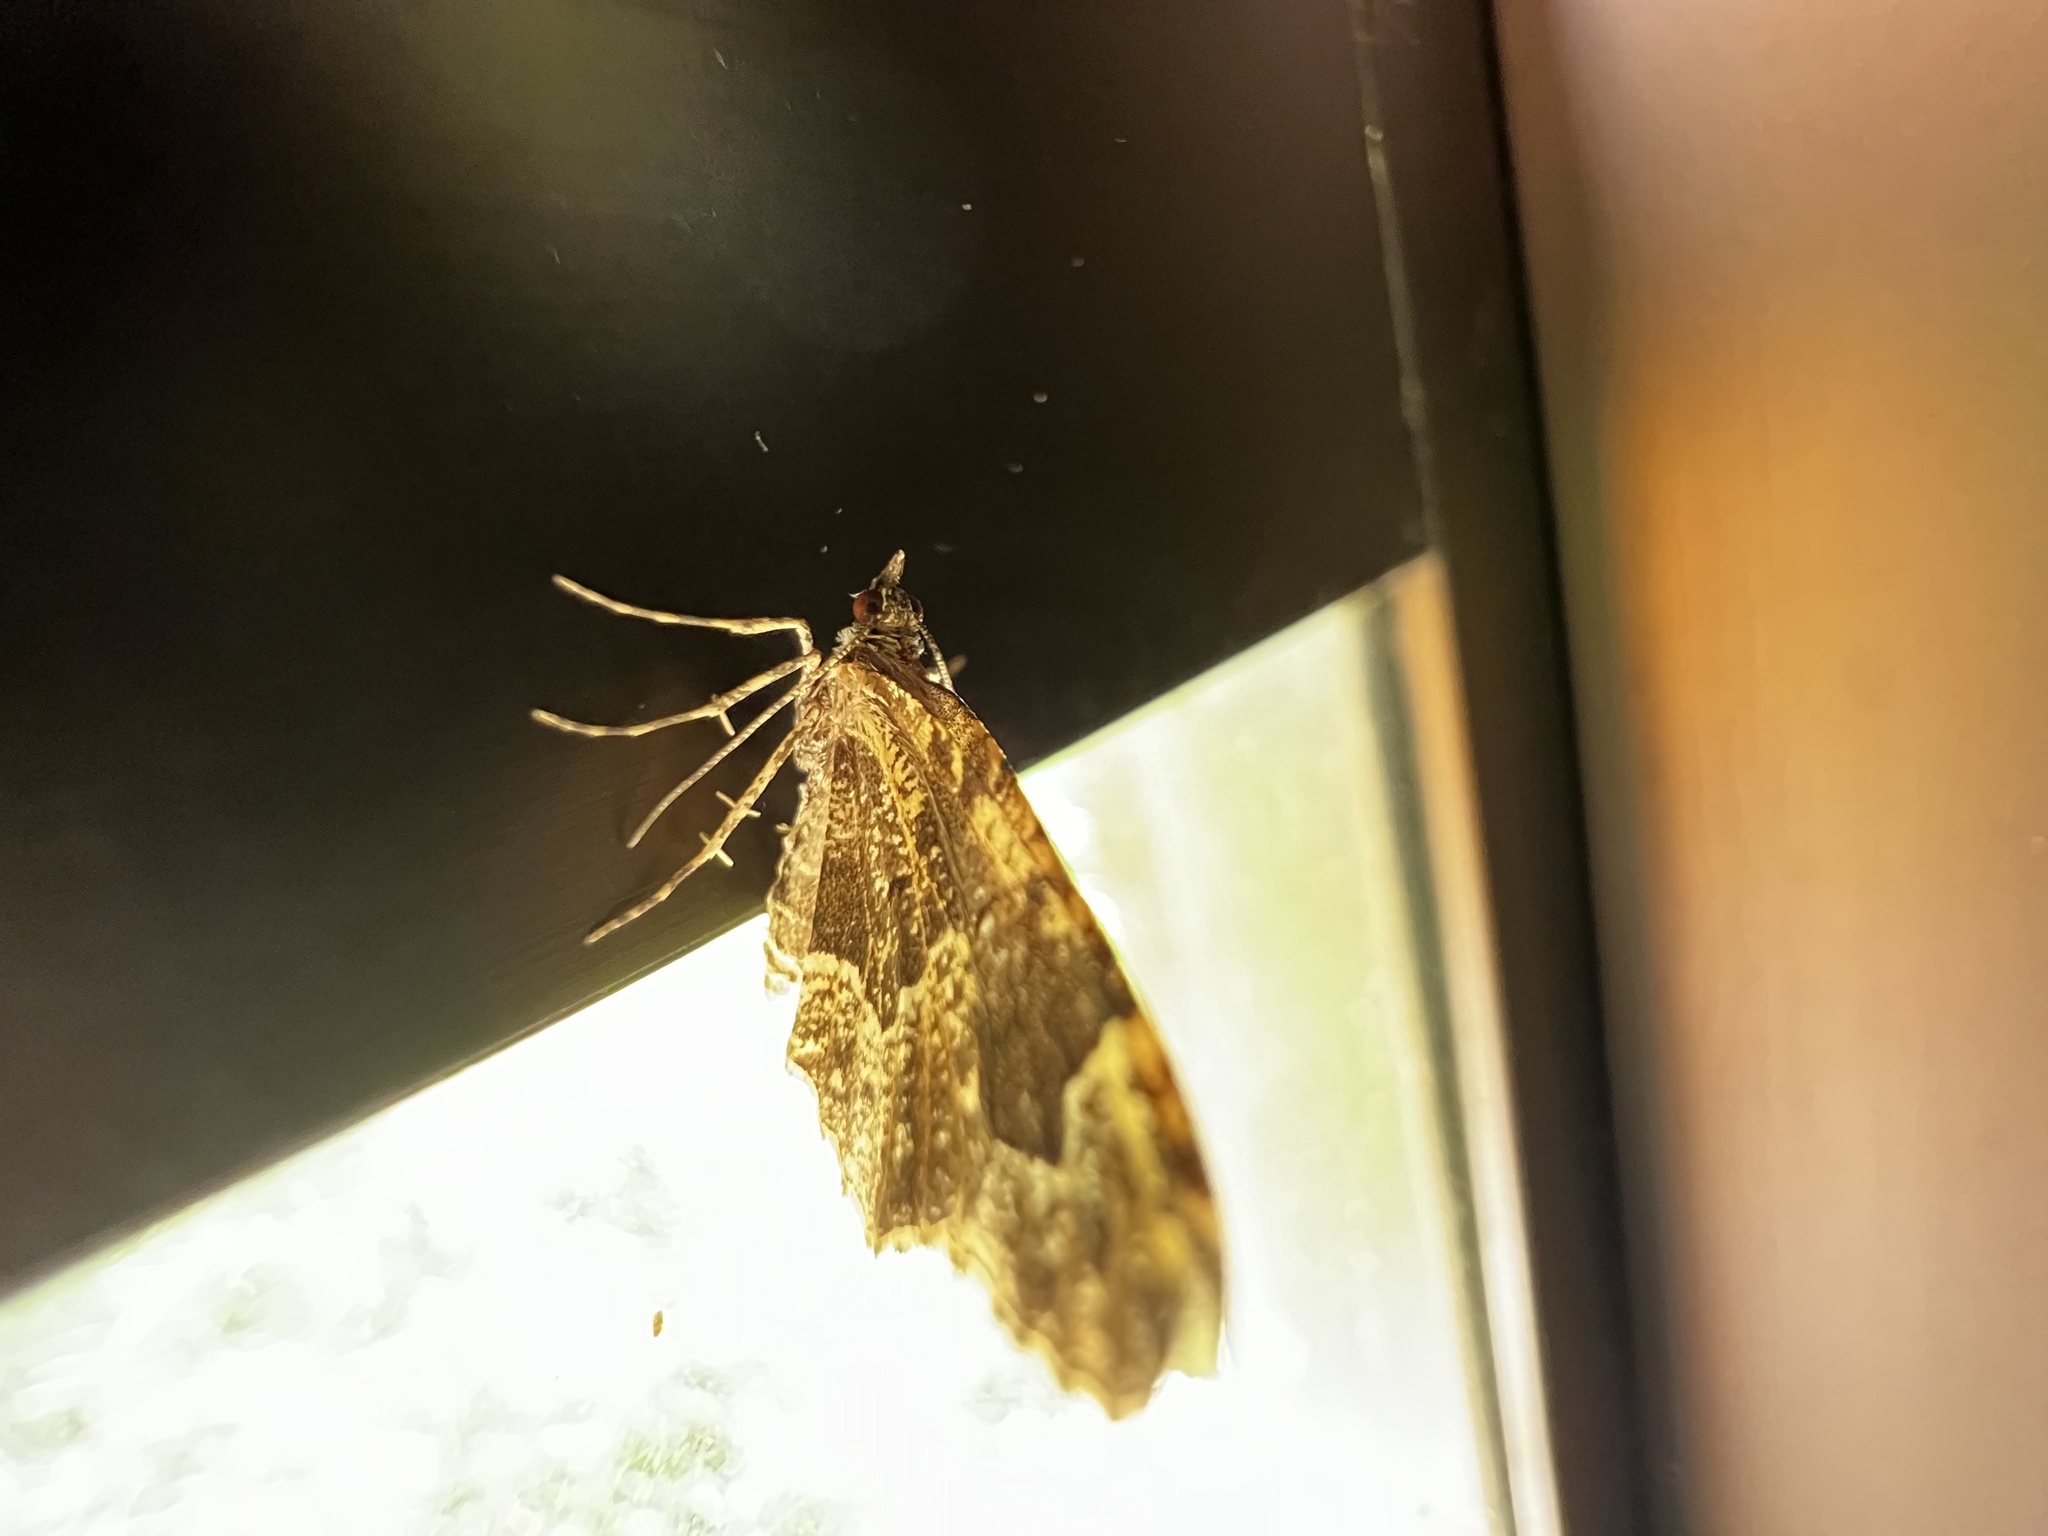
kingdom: Animalia
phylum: Arthropoda
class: Insecta
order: Lepidoptera
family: Geometridae
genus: Ceratodalia
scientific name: Ceratodalia gueneata
